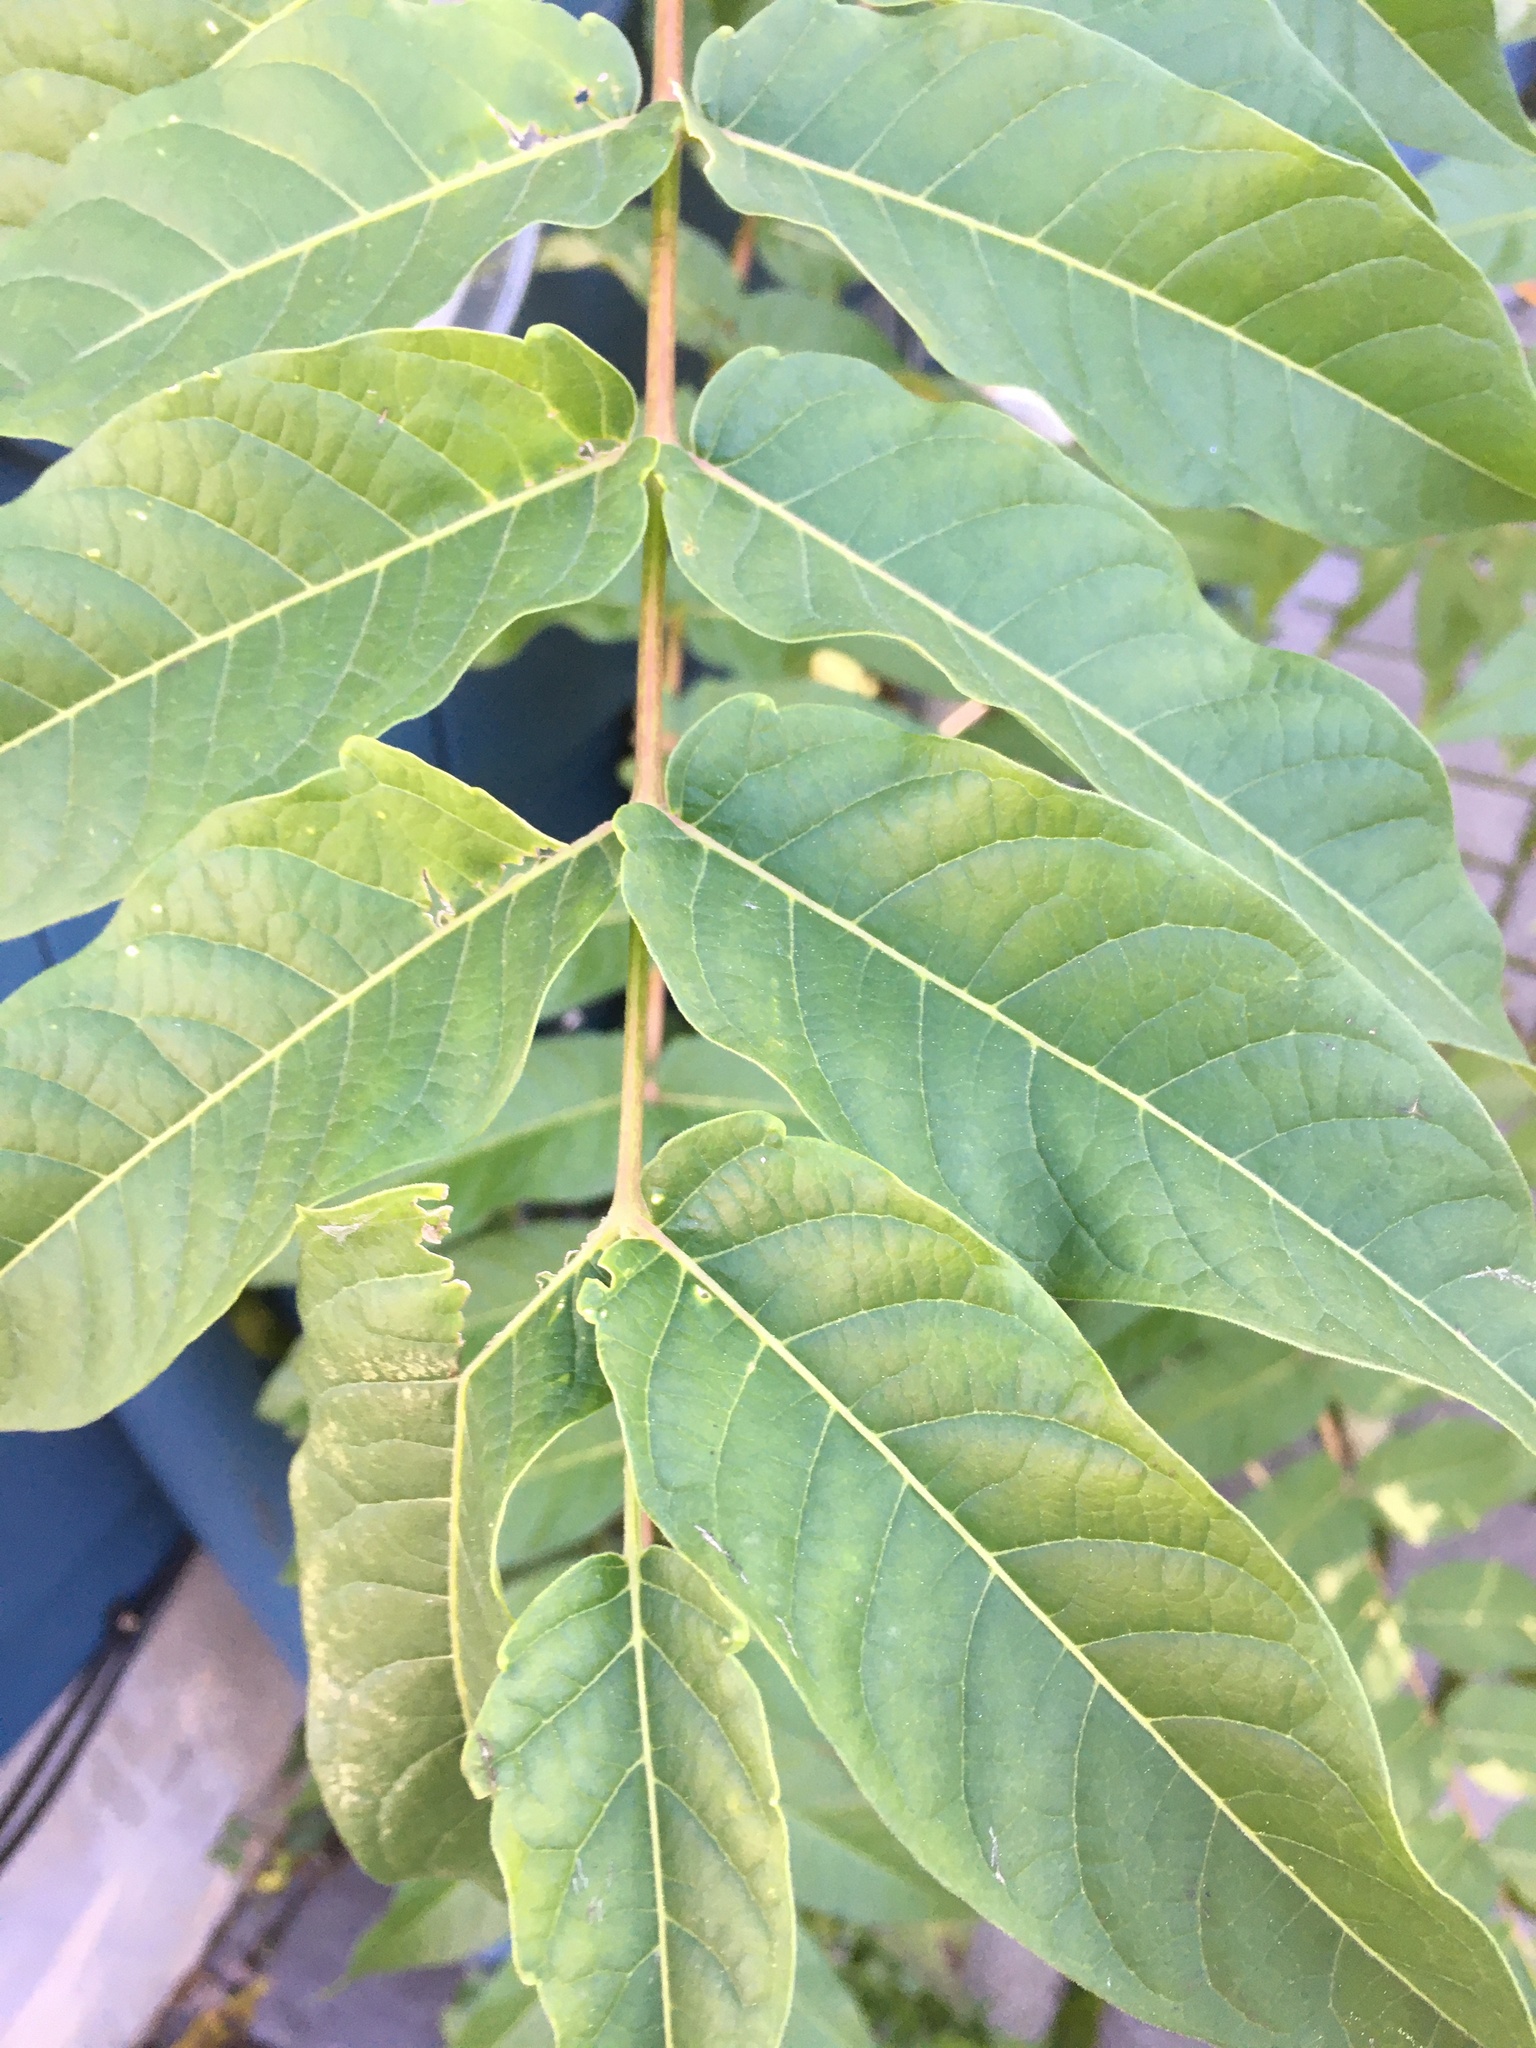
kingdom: Plantae
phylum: Tracheophyta
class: Magnoliopsida
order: Sapindales
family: Simaroubaceae
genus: Ailanthus
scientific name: Ailanthus altissima
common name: Tree-of-heaven
